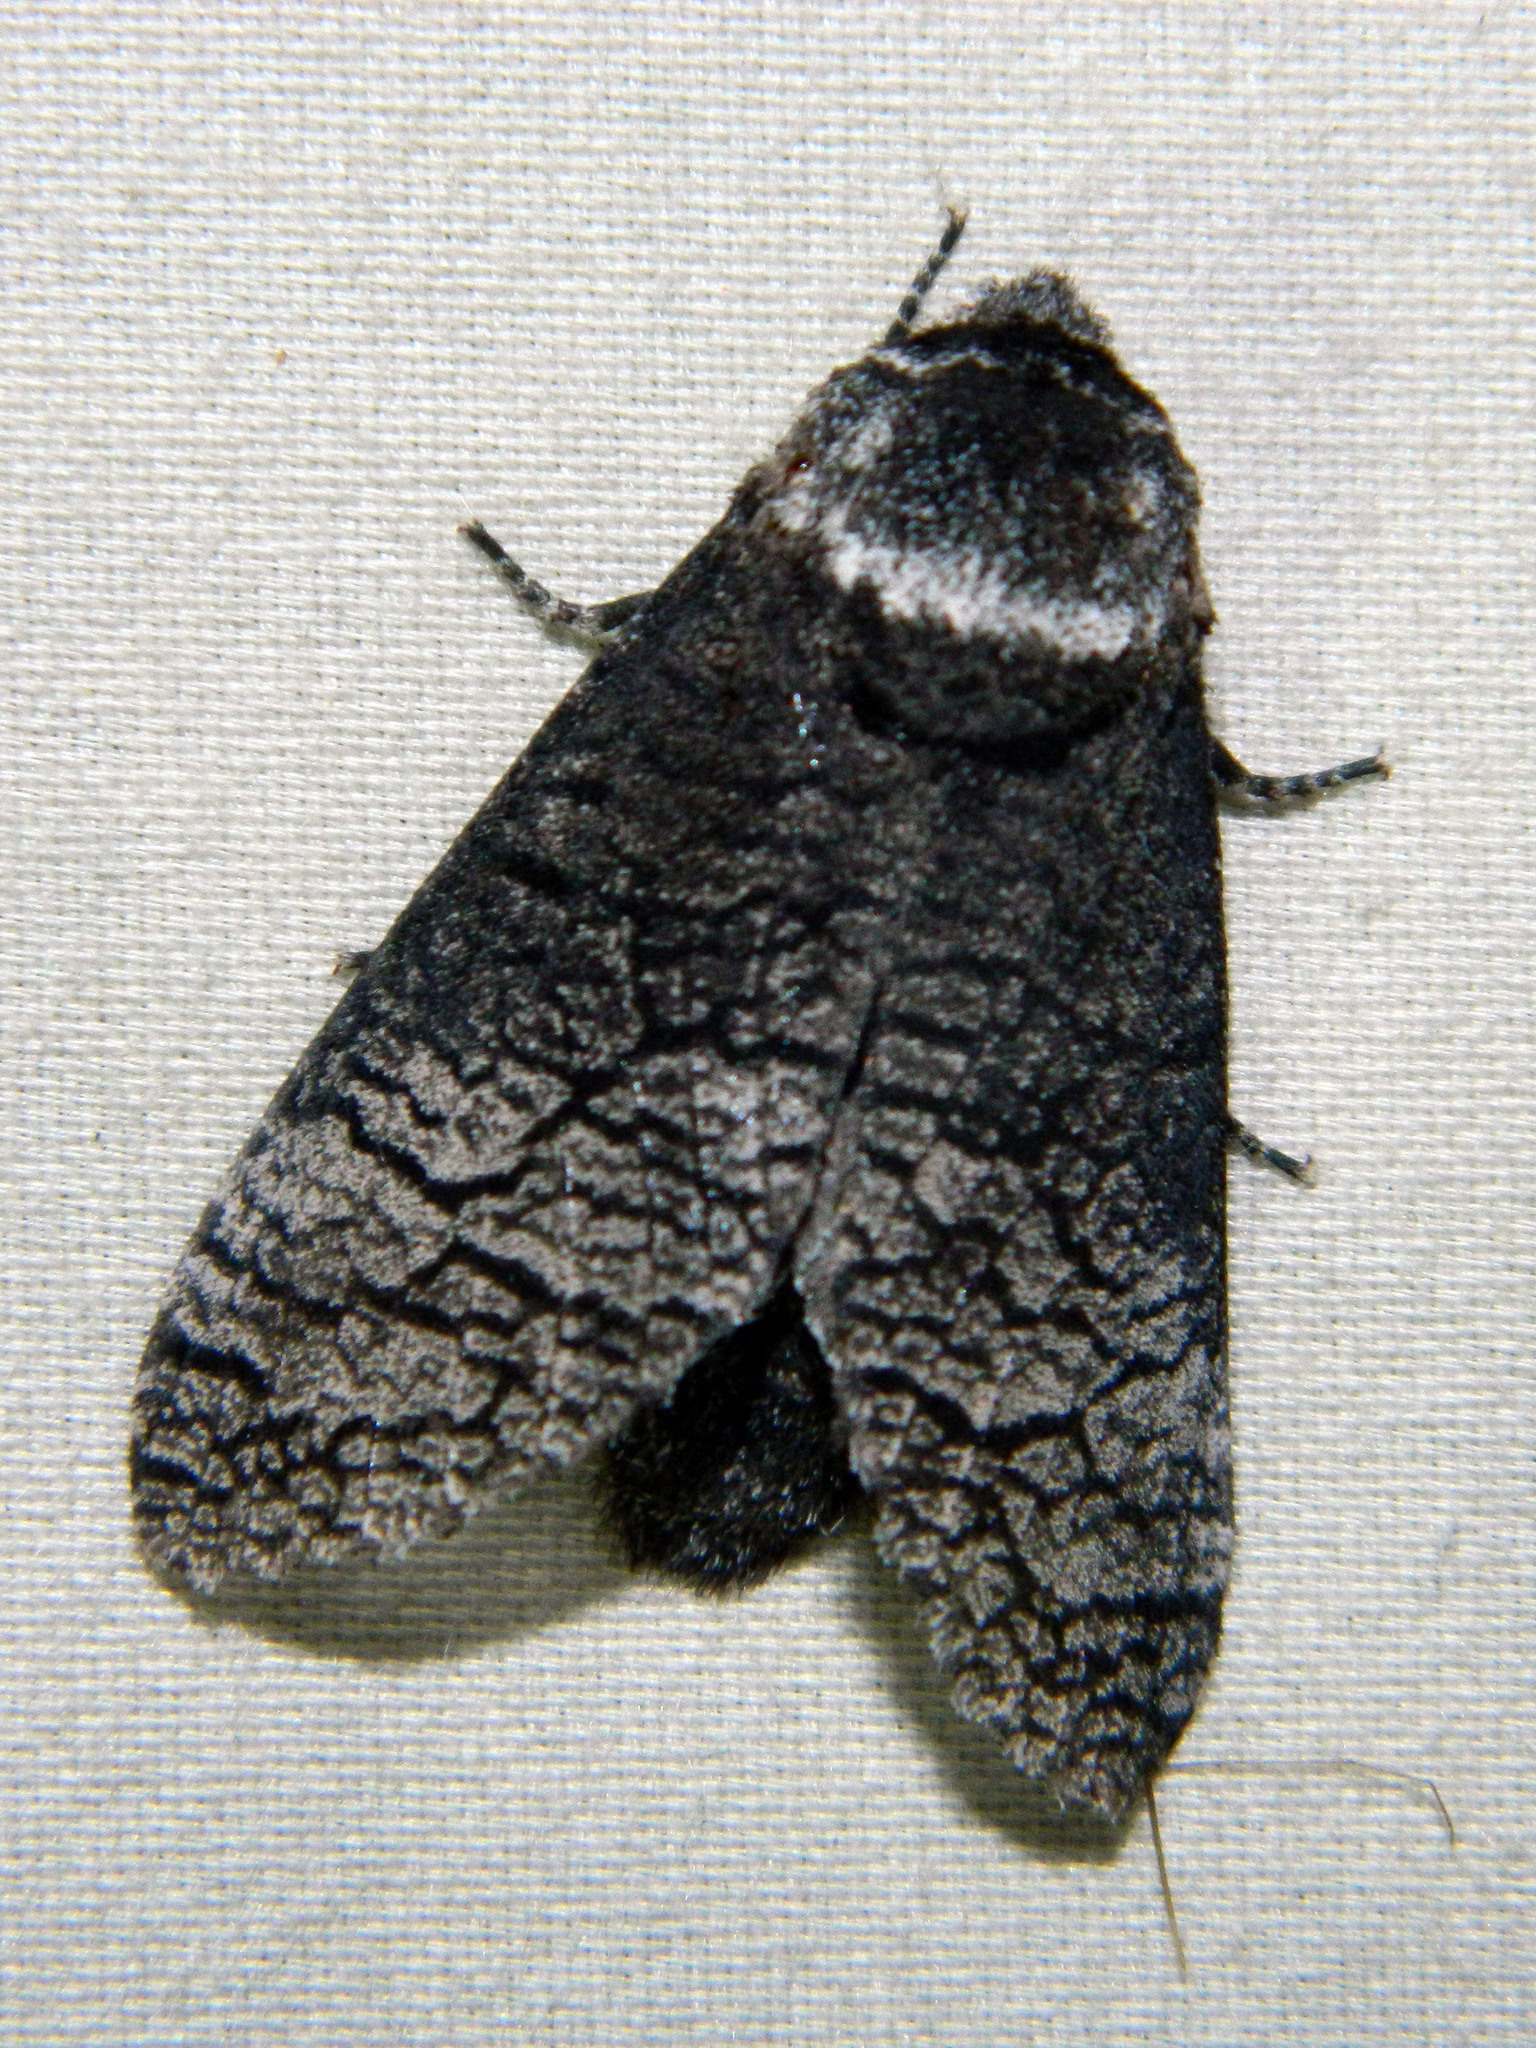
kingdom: Animalia
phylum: Arthropoda
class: Insecta
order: Lepidoptera
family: Cossidae
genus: Acossus
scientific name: Acossus centerensis
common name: Poplar carpenterworm moth
